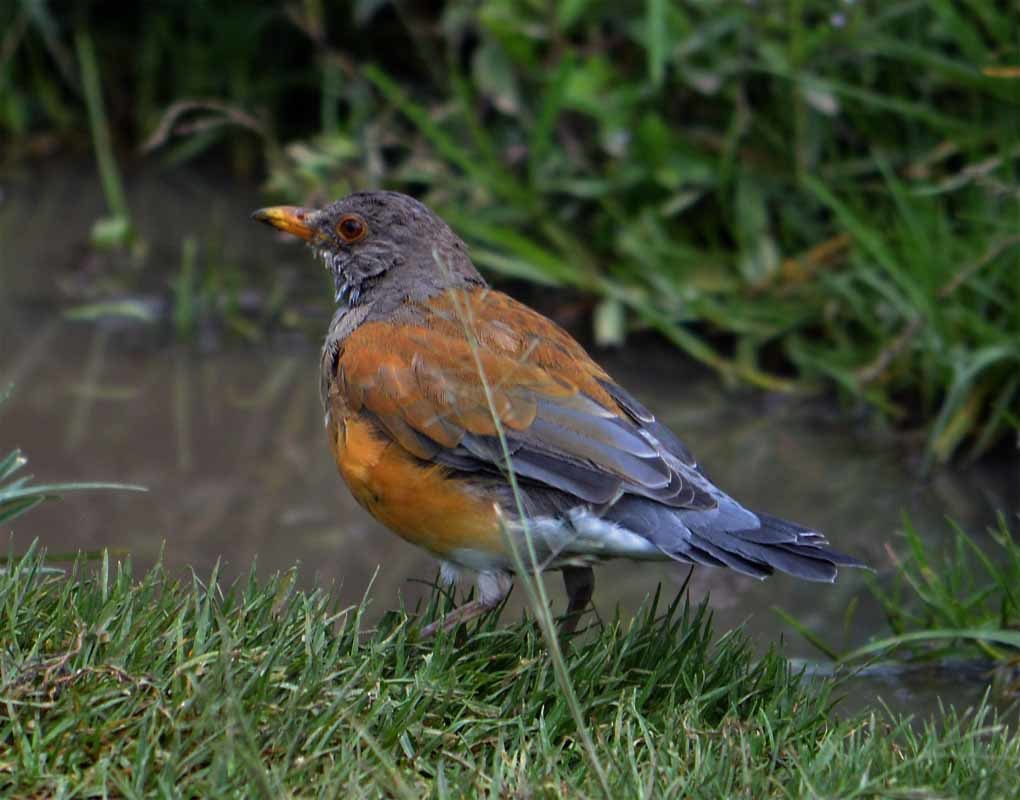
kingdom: Animalia
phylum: Chordata
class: Aves
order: Passeriformes
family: Turdidae
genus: Turdus
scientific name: Turdus rufopalliatus
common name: Rufous-backed robin
